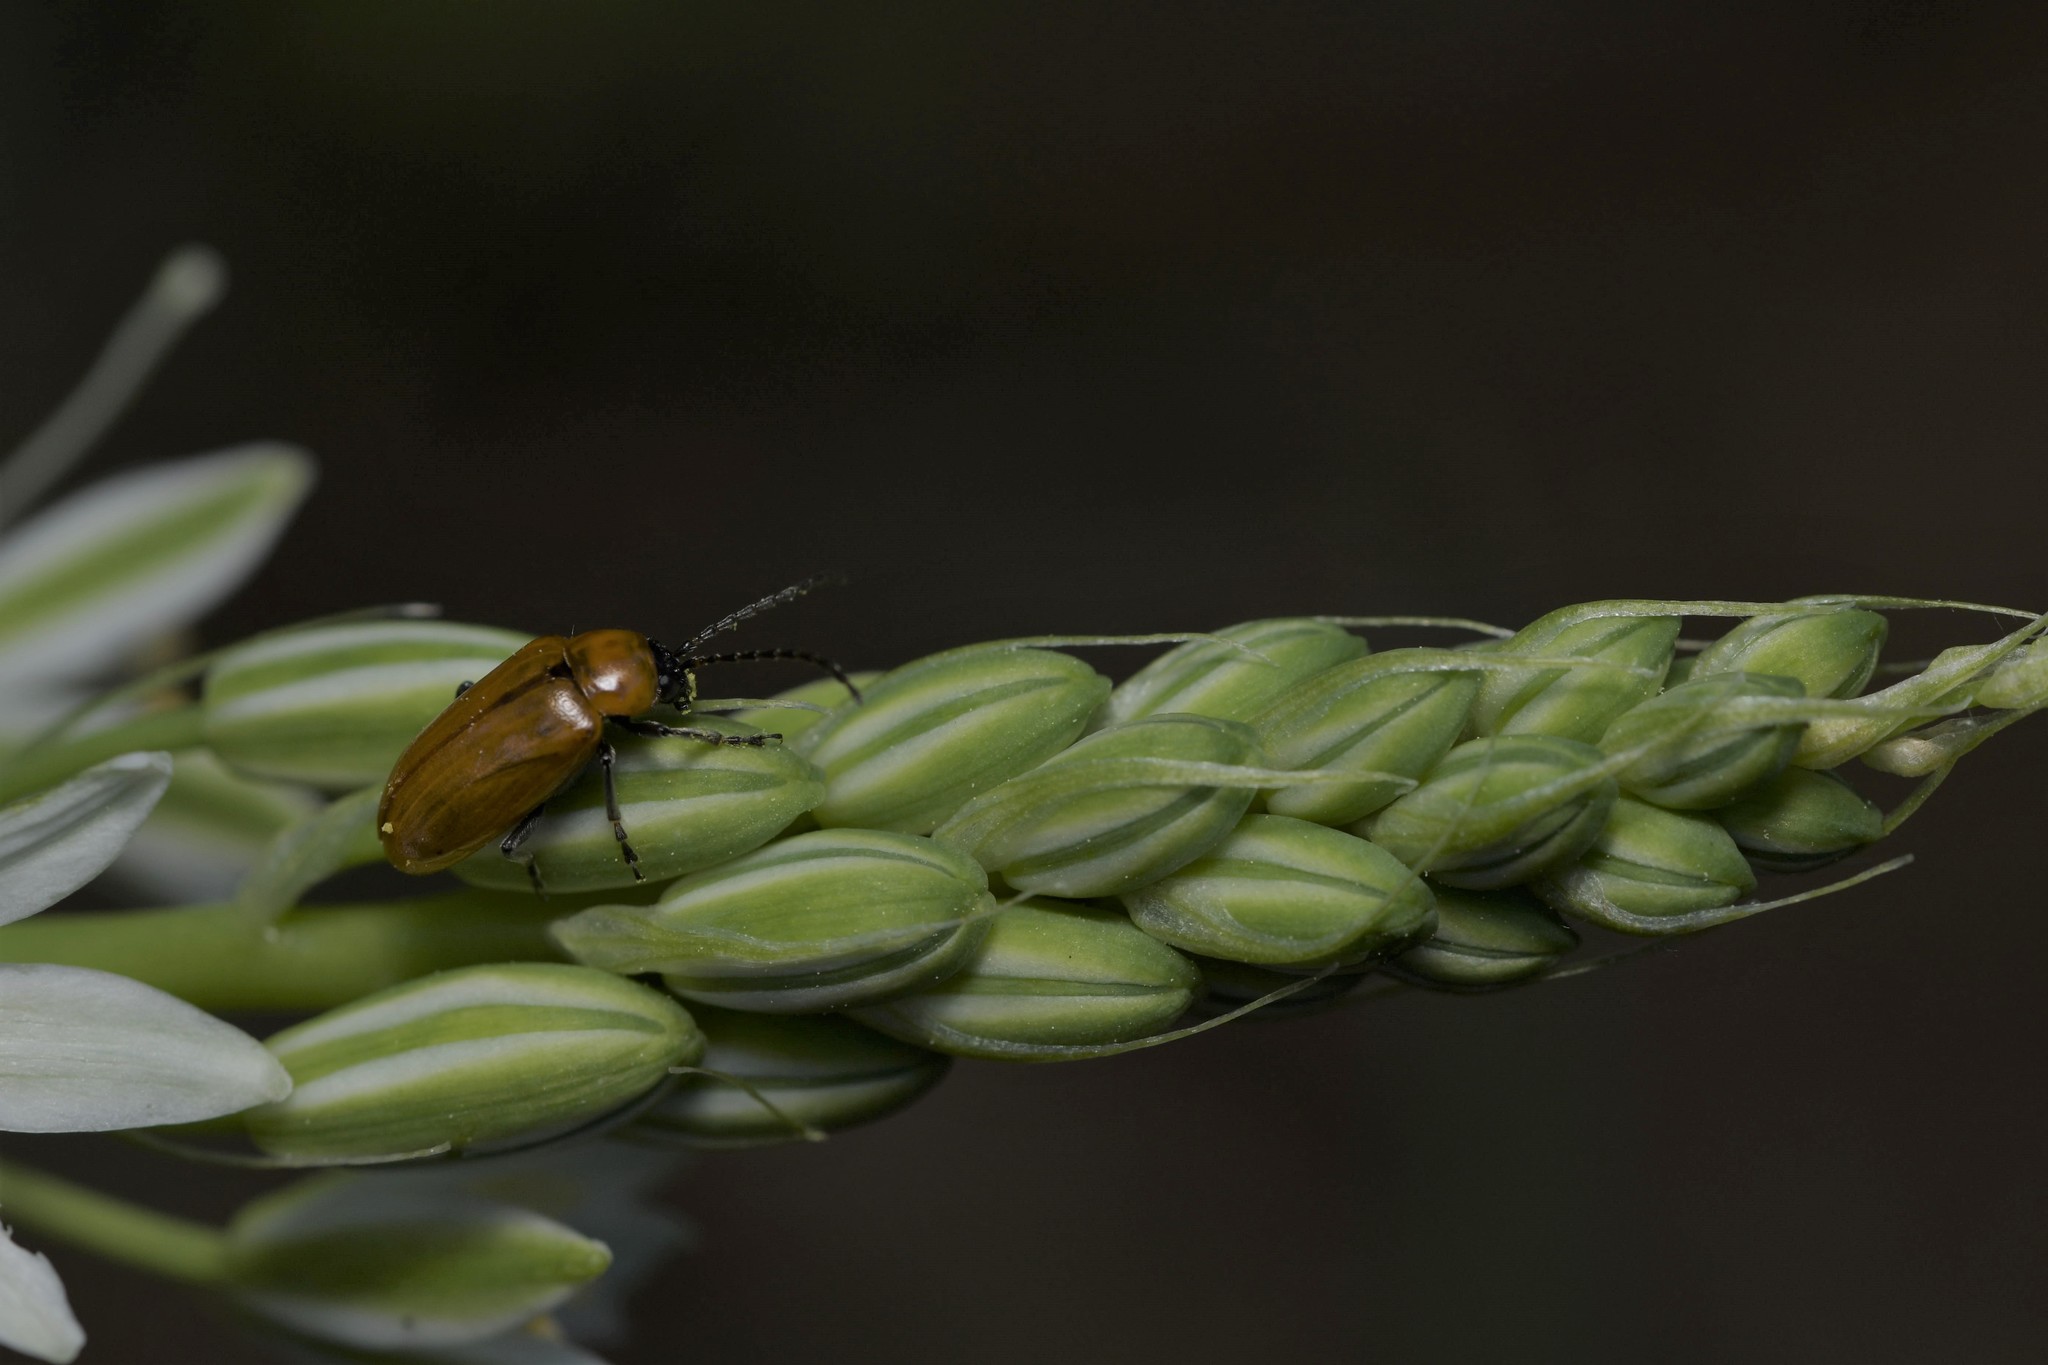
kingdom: Animalia
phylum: Arthropoda
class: Insecta
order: Coleoptera
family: Chrysomelidae
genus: Exosoma
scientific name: Exosoma lusitanicum
